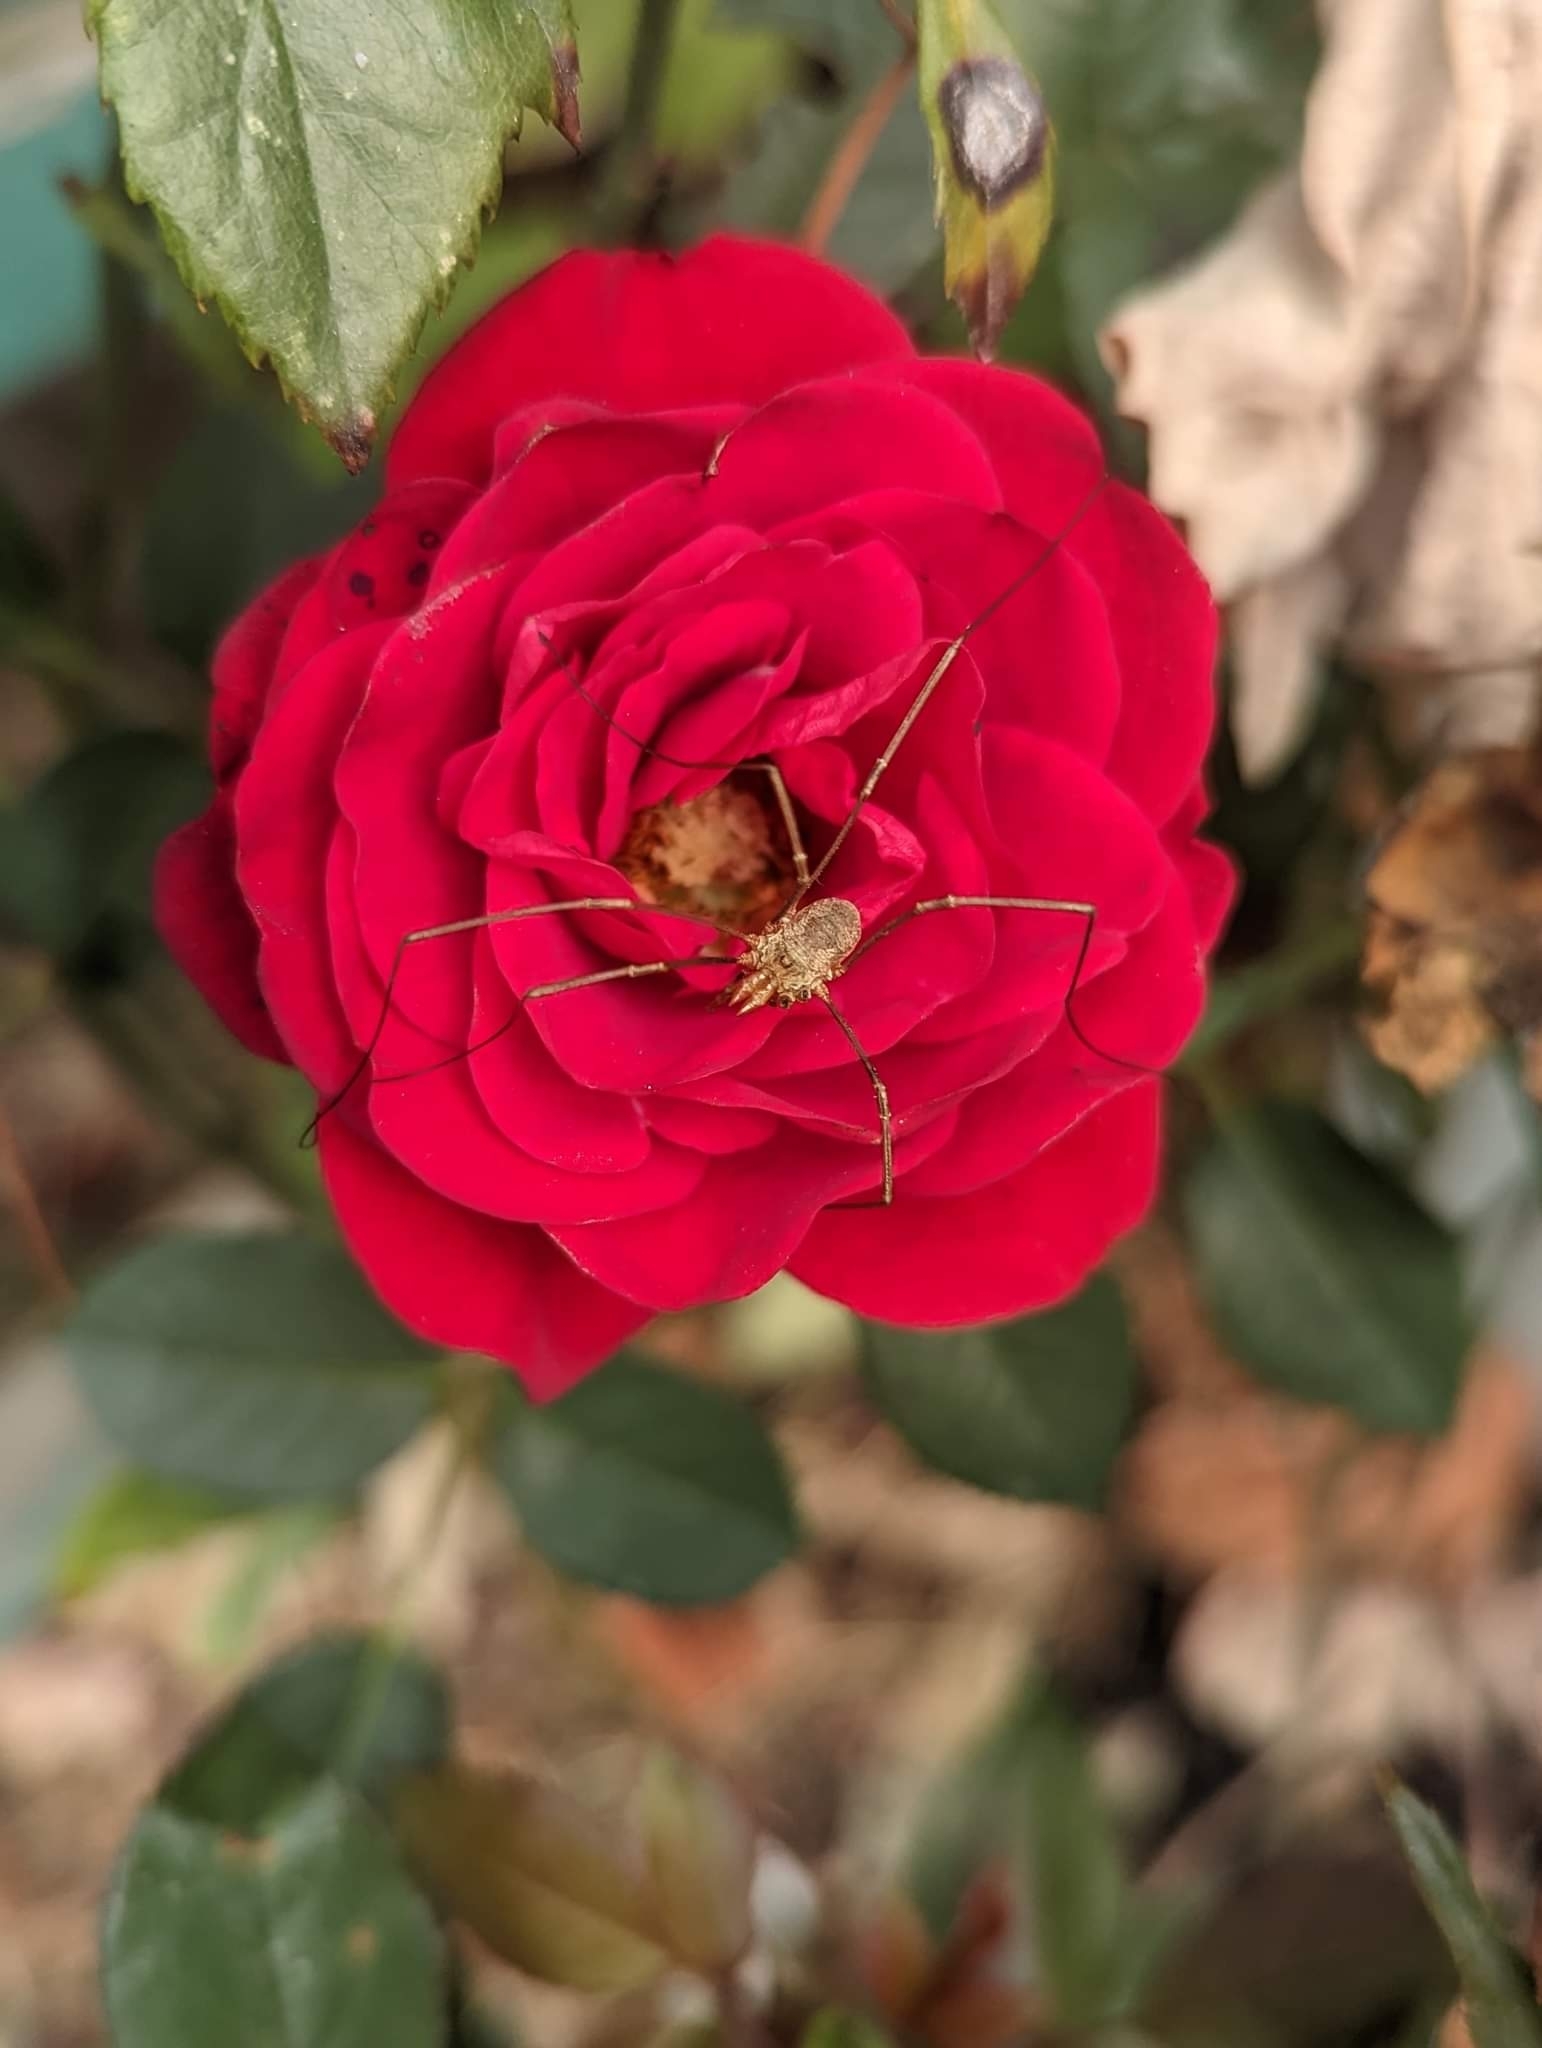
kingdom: Animalia
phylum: Arthropoda
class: Arachnida
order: Opiliones
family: Phalangiidae
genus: Phalangium
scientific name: Phalangium opilio
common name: Daddy longleg
